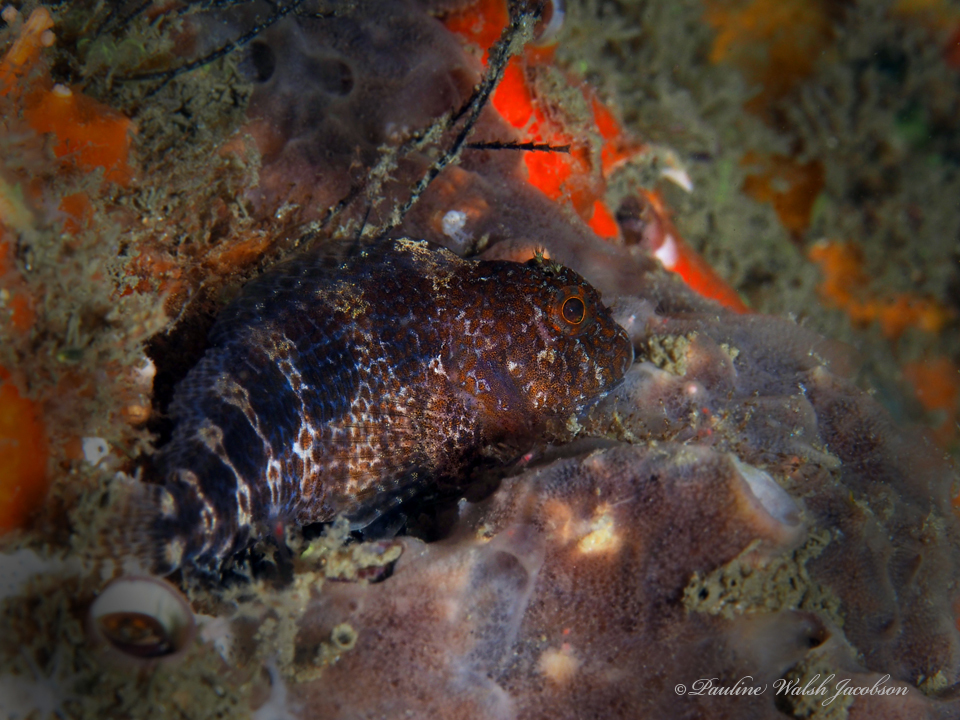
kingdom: Animalia
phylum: Chordata
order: Perciformes
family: Blenniidae
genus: Hypleurochilus
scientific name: Hypleurochilus bermudensis
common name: Barred blenny
